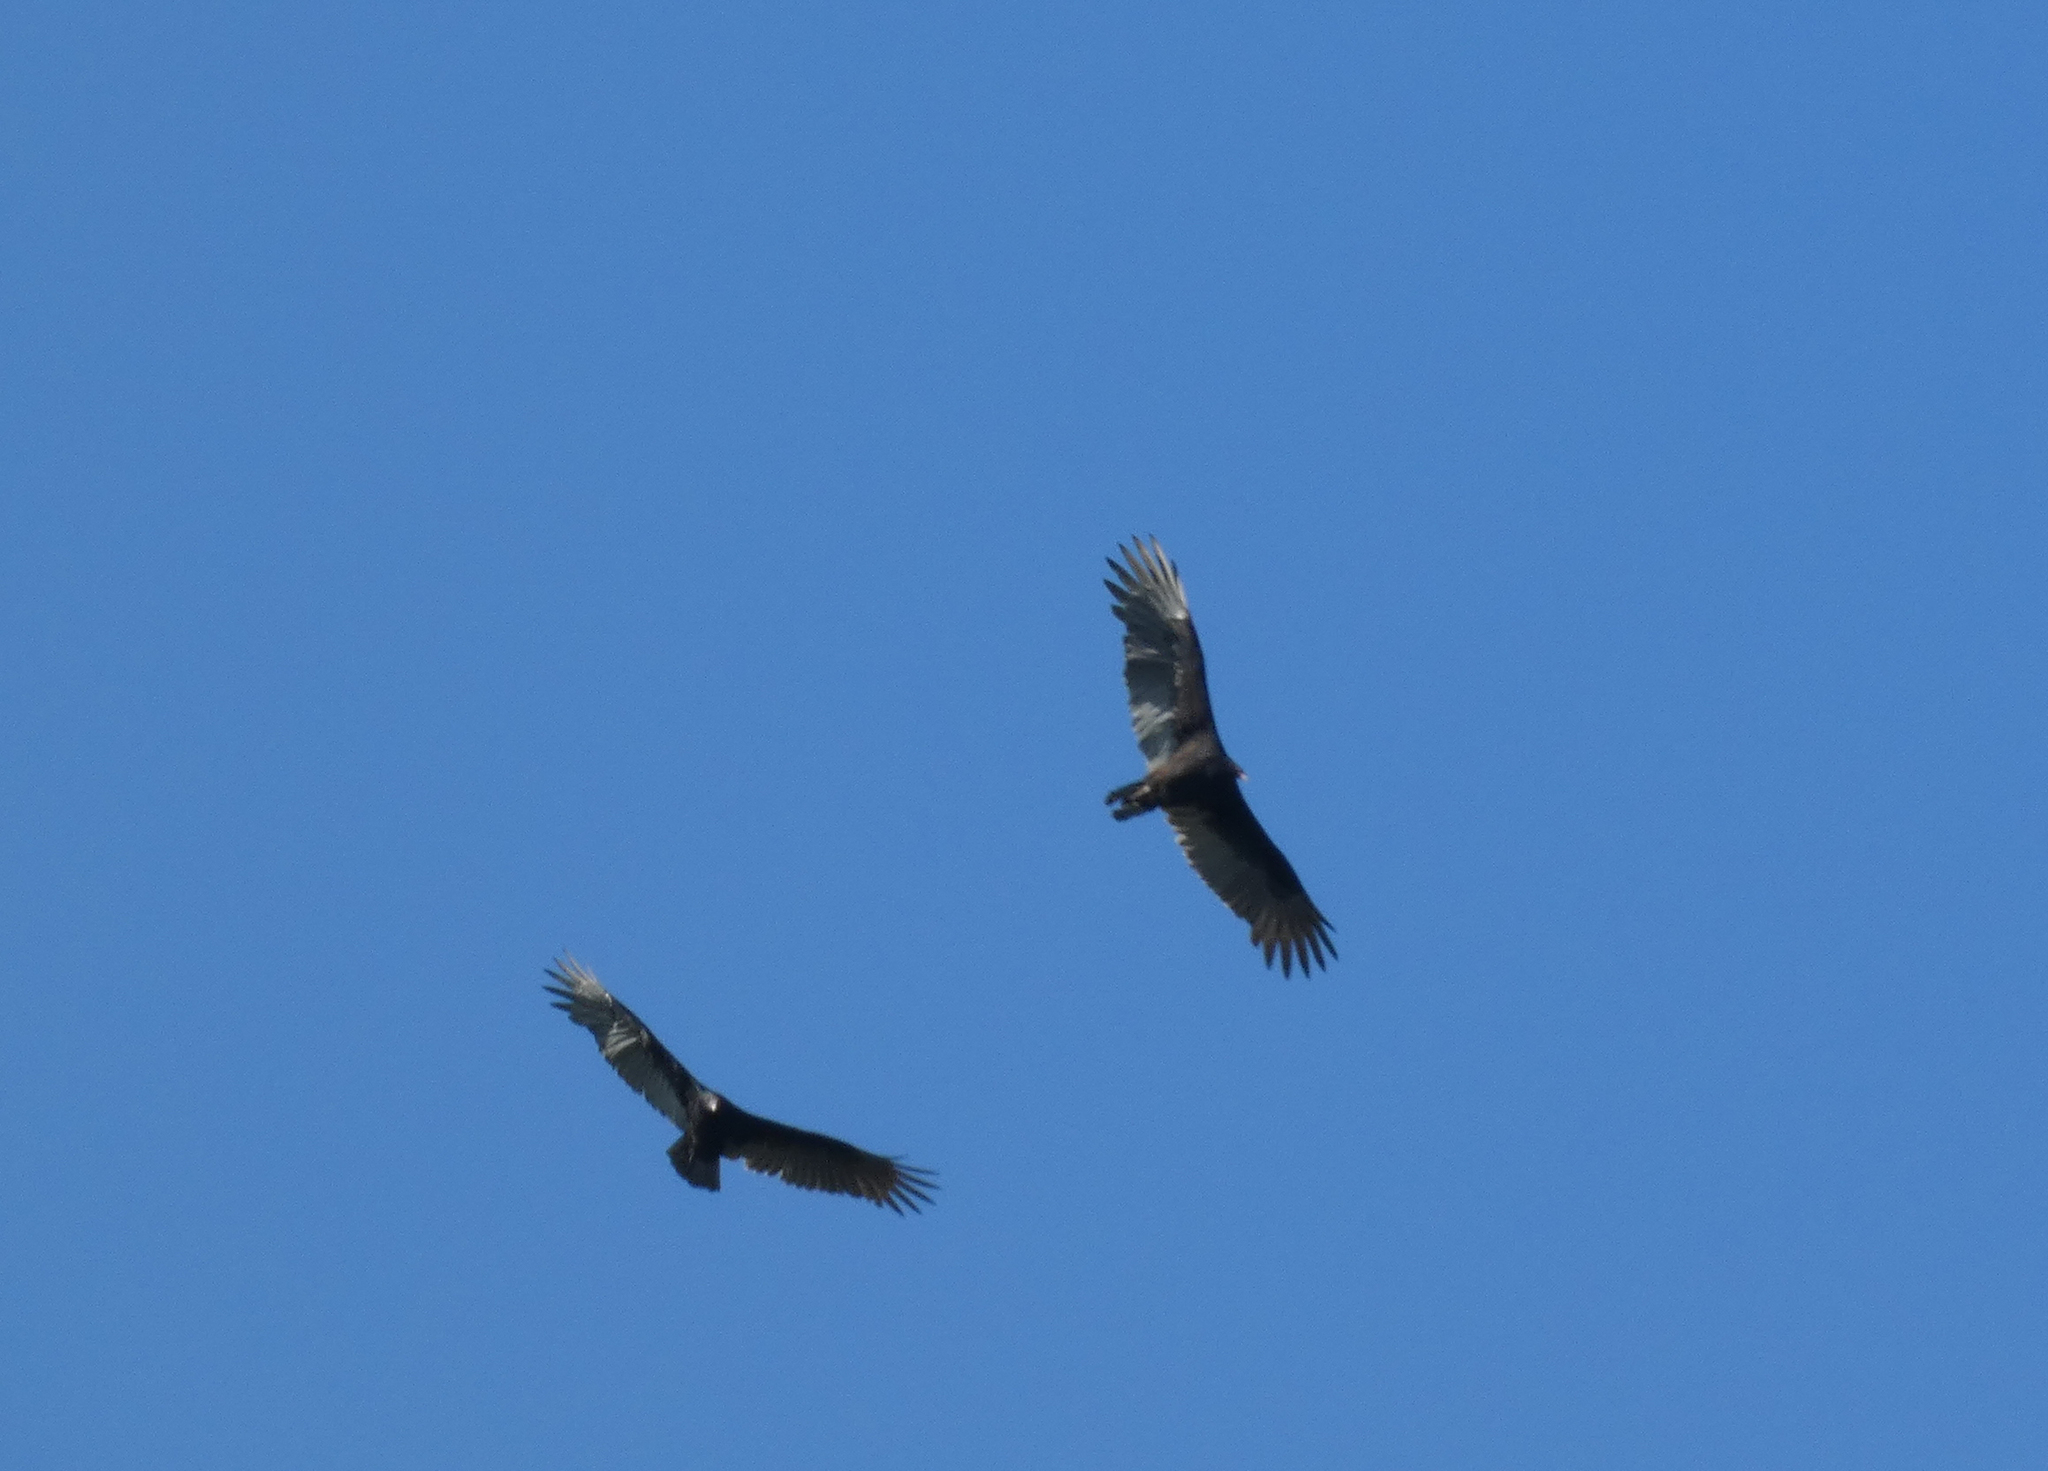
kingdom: Animalia
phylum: Chordata
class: Aves
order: Accipitriformes
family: Cathartidae
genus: Cathartes
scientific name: Cathartes aura
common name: Turkey vulture
